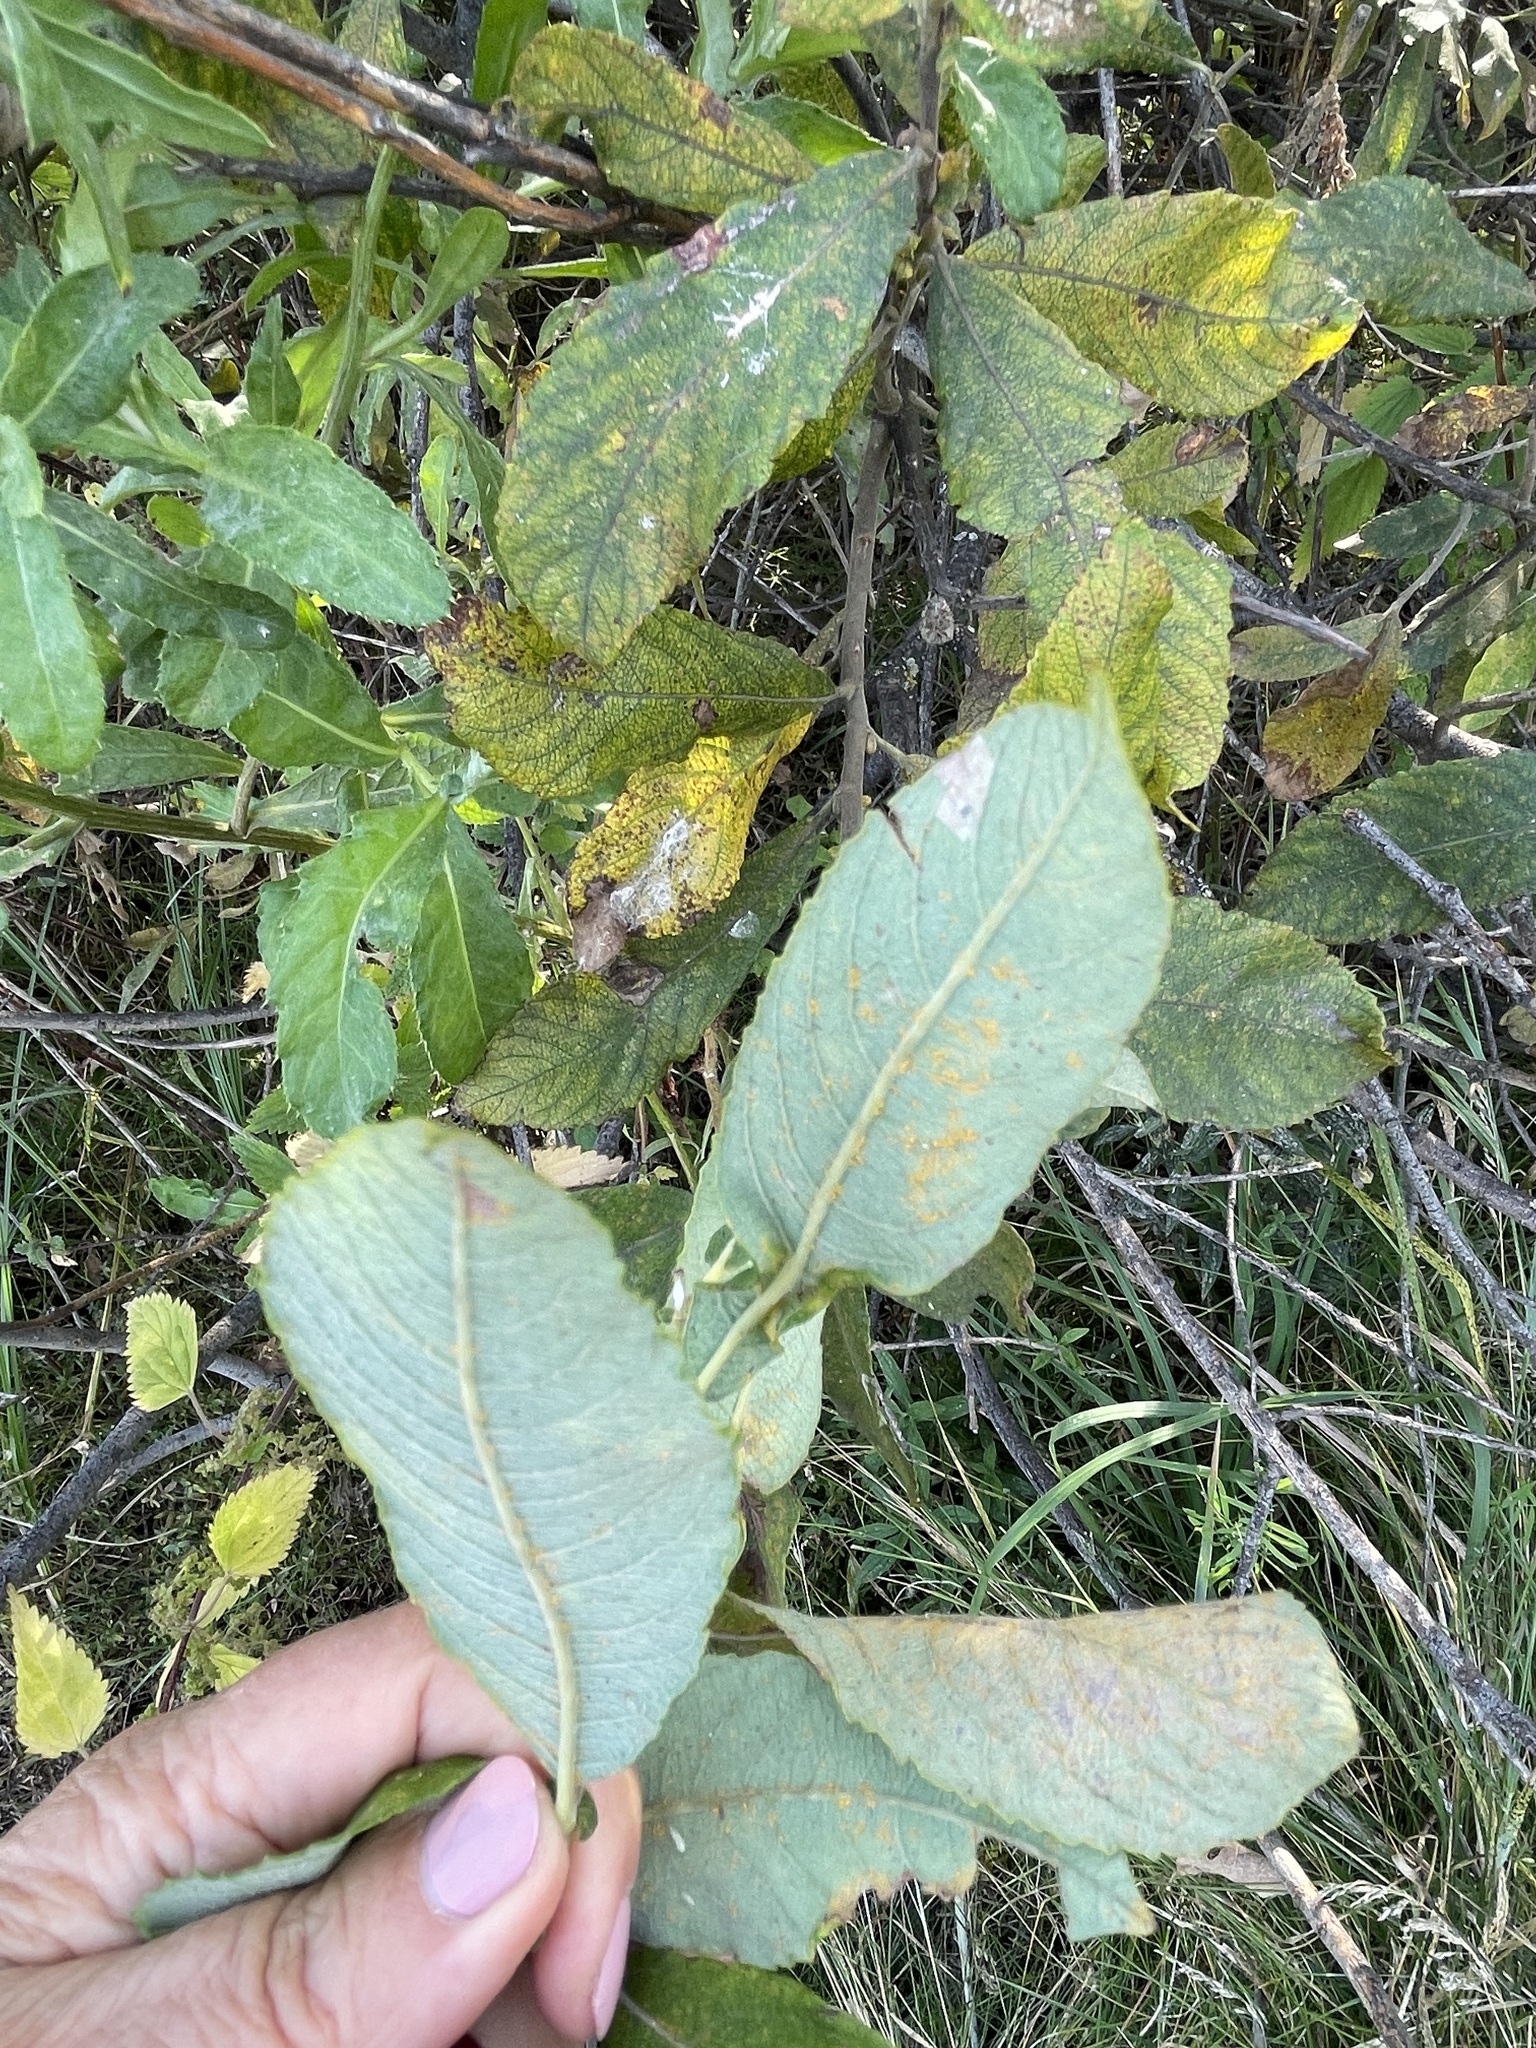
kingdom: Plantae
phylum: Tracheophyta
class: Magnoliopsida
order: Malpighiales
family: Salicaceae
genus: Salix
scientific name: Salix cinerea
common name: Common sallow
